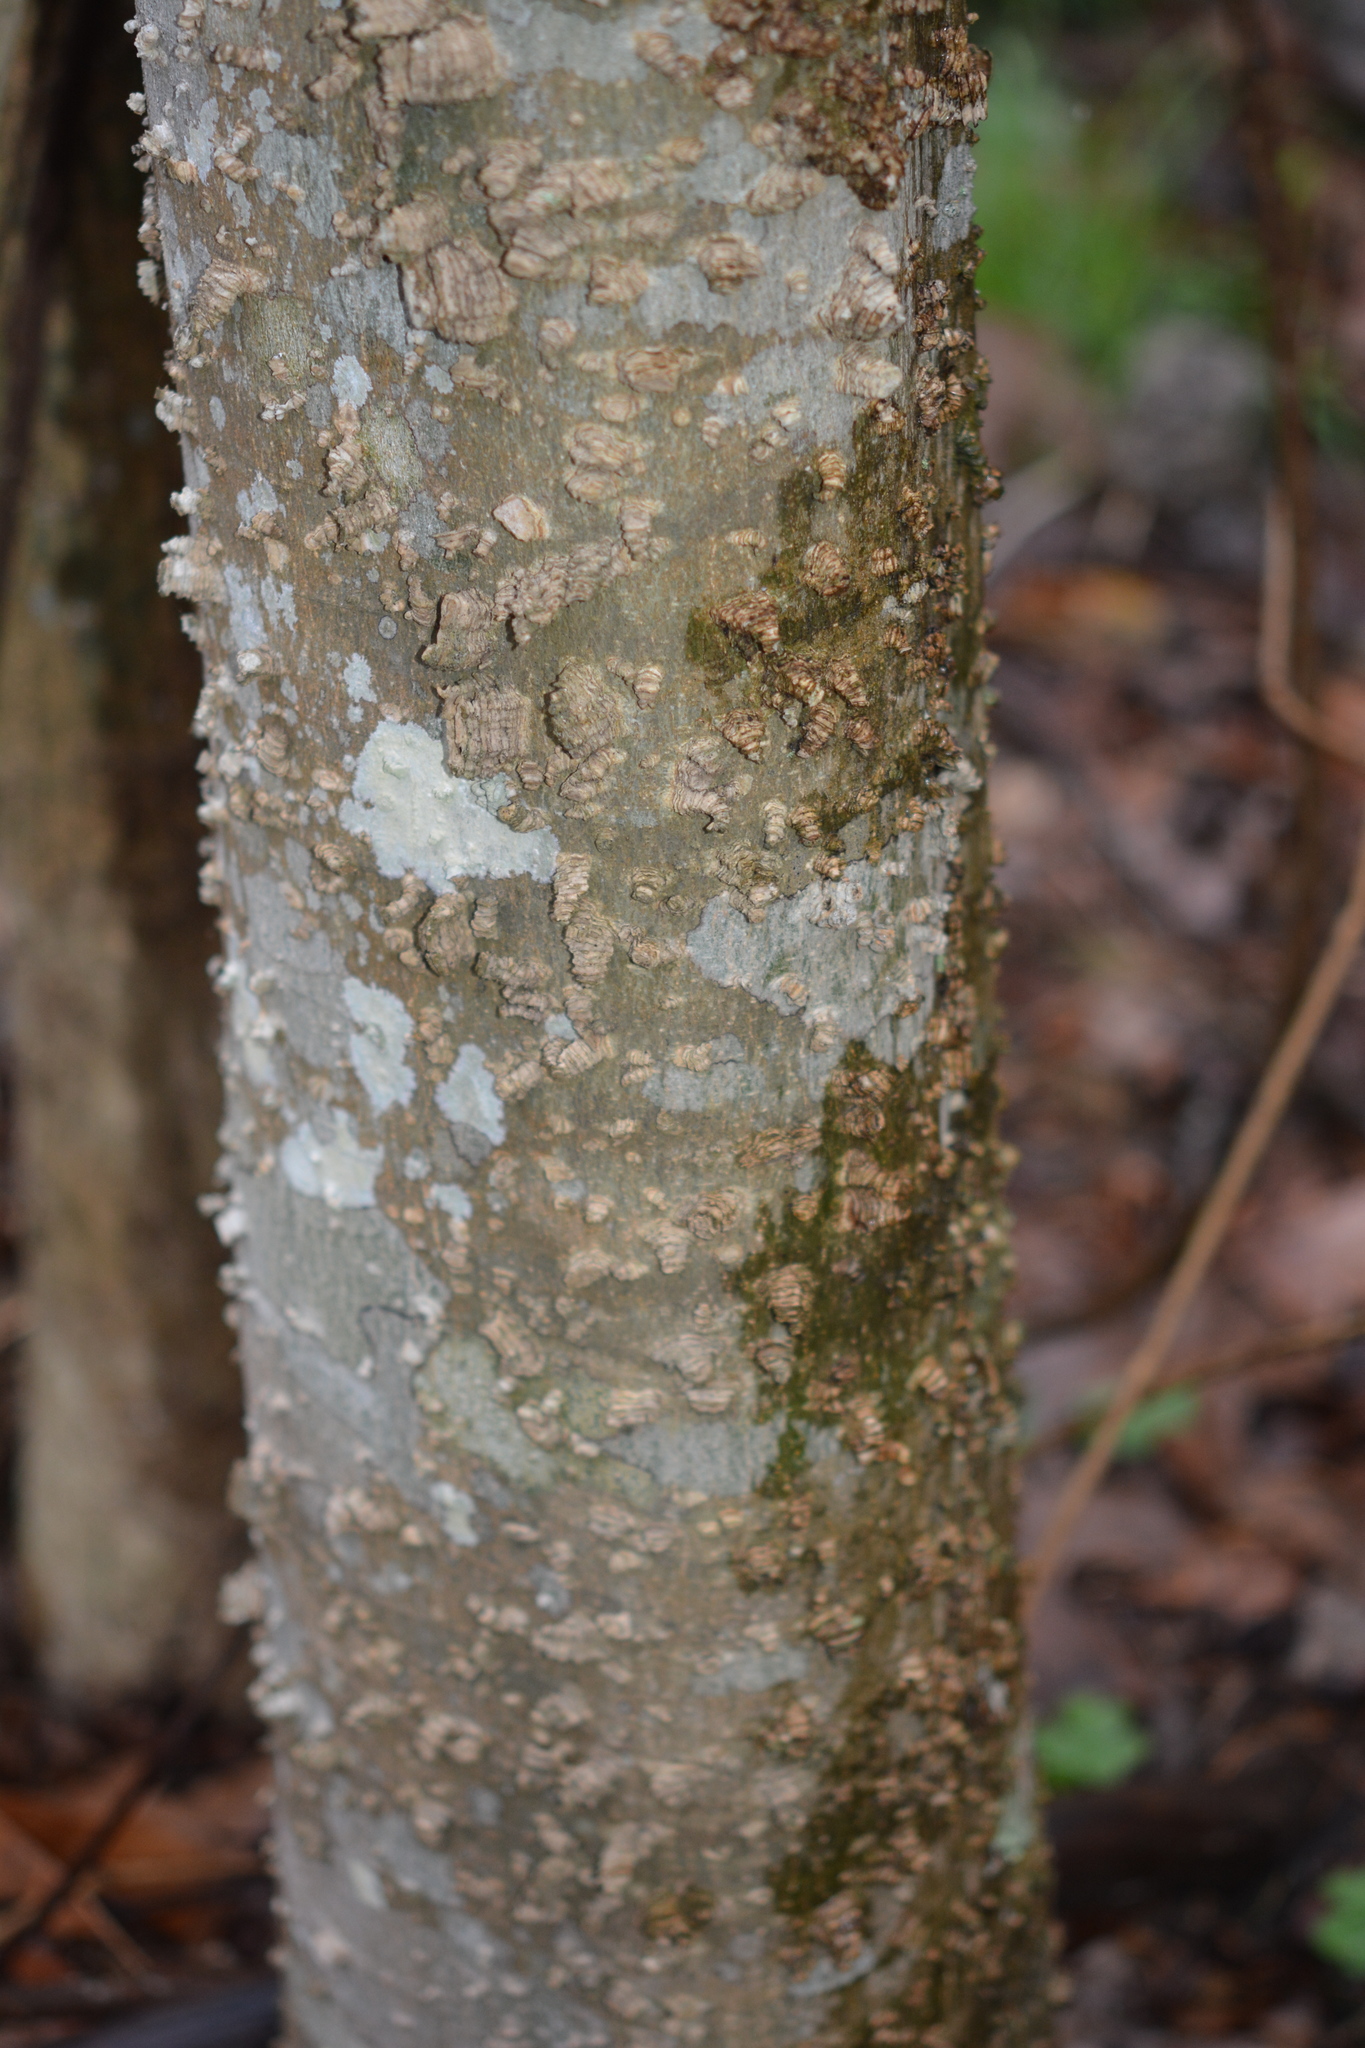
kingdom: Plantae
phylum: Tracheophyta
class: Magnoliopsida
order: Rosales
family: Cannabaceae
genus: Celtis
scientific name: Celtis laevigata
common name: Sugarberry
